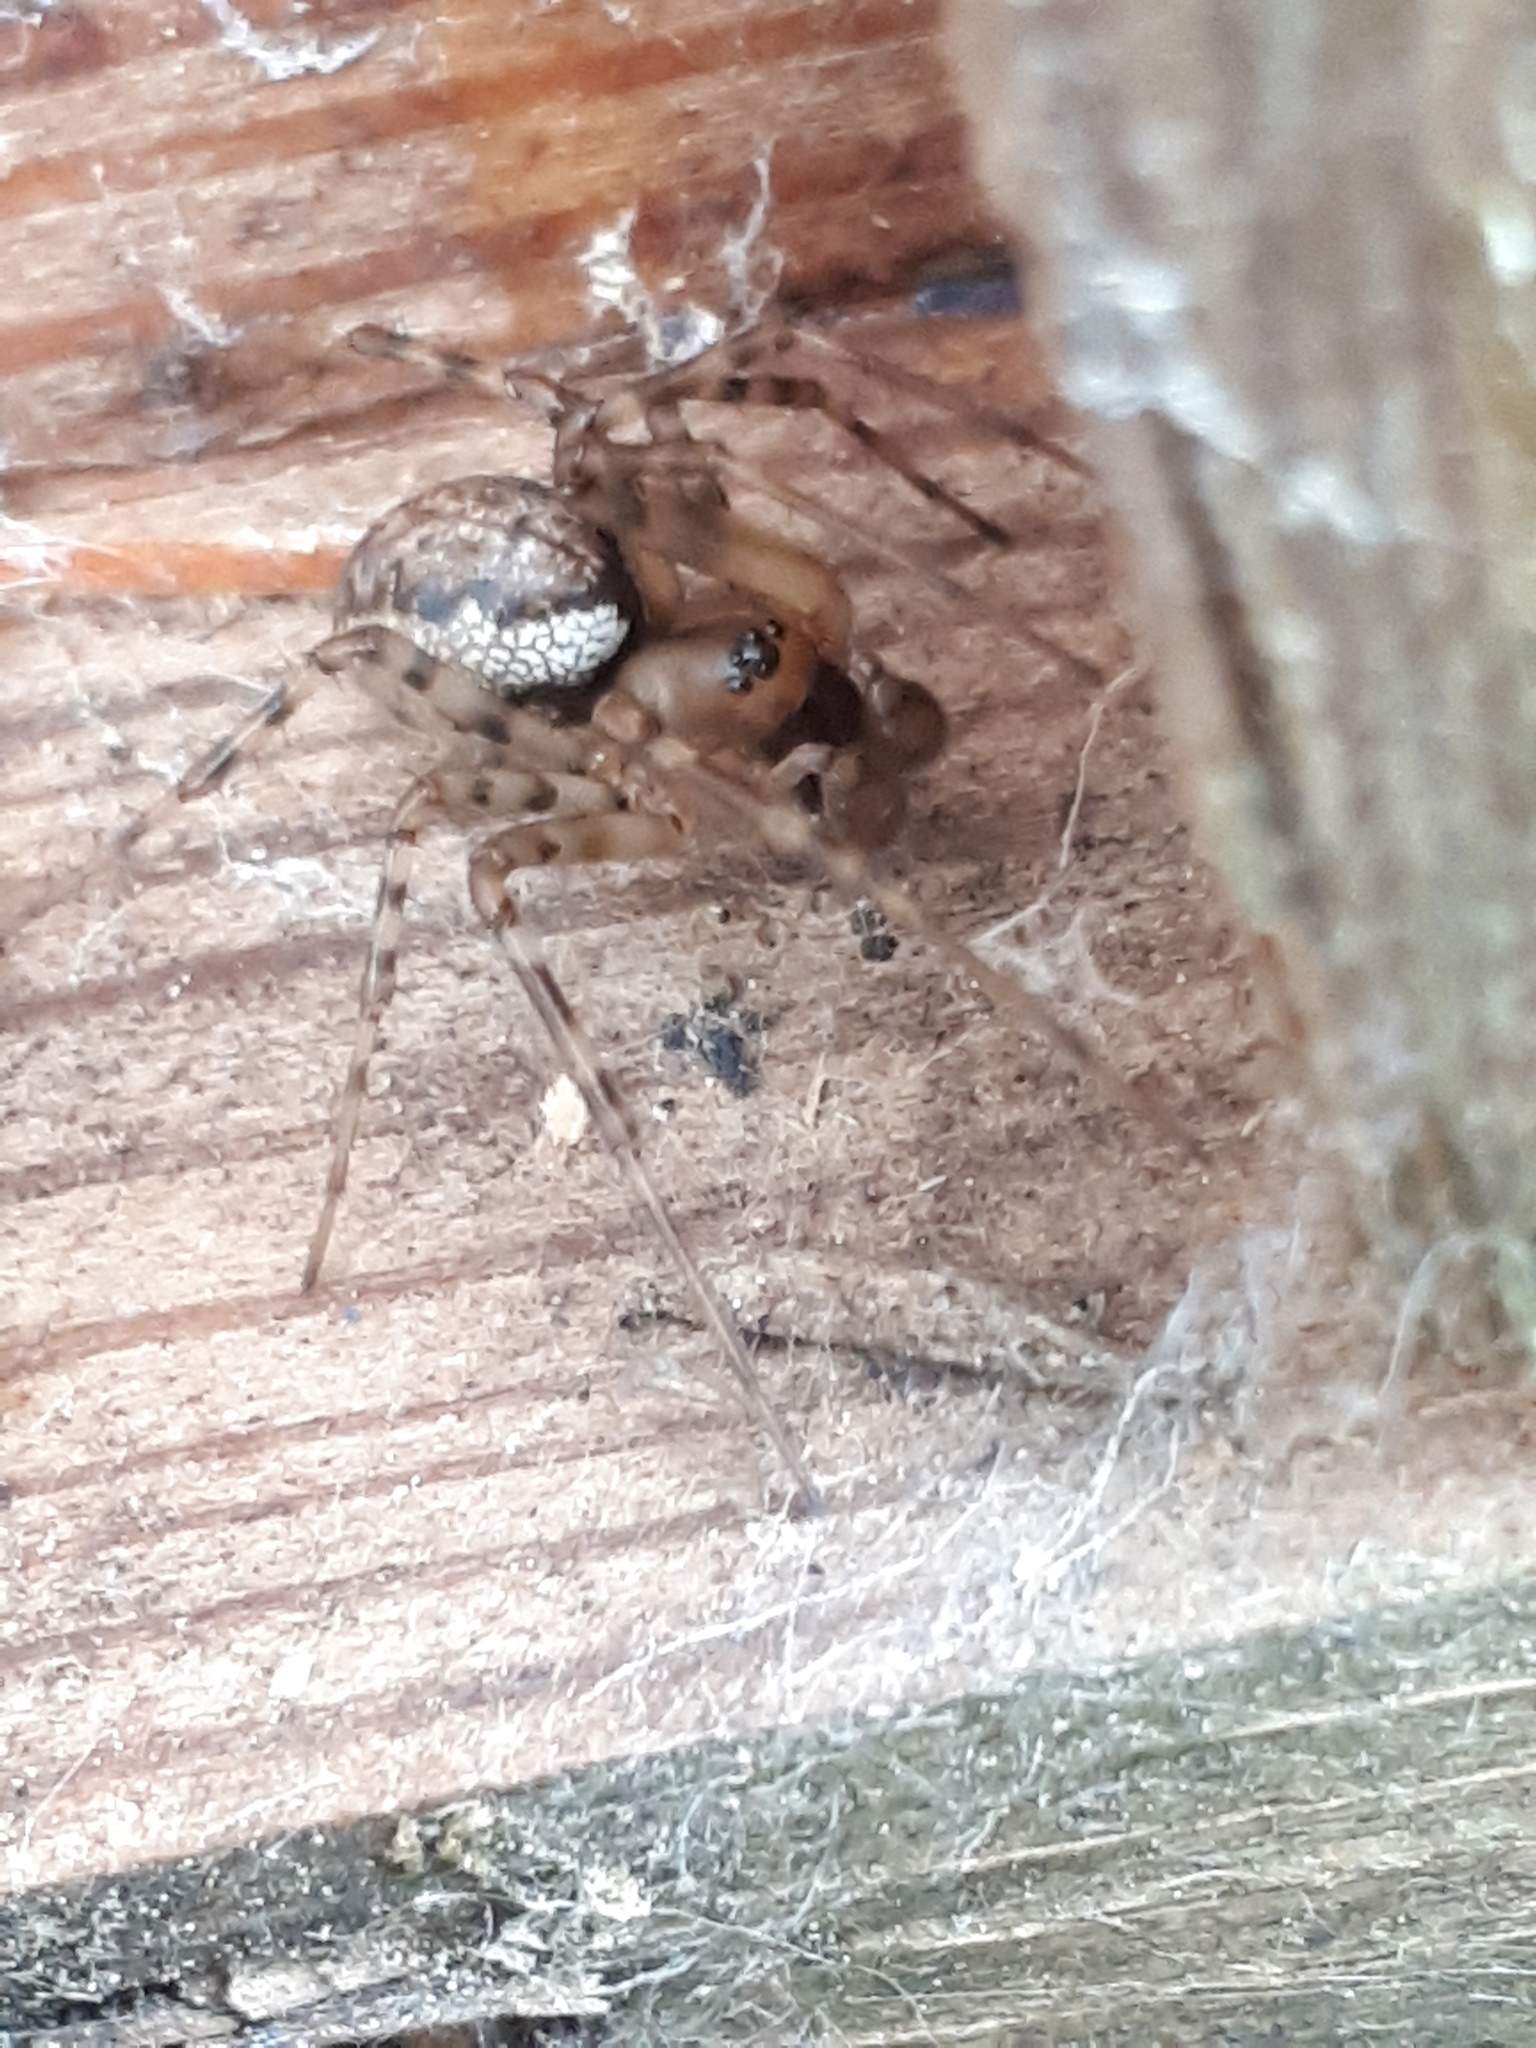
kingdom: Animalia
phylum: Arthropoda
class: Arachnida
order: Araneae
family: Linyphiidae
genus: Neriene
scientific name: Neriene montana
